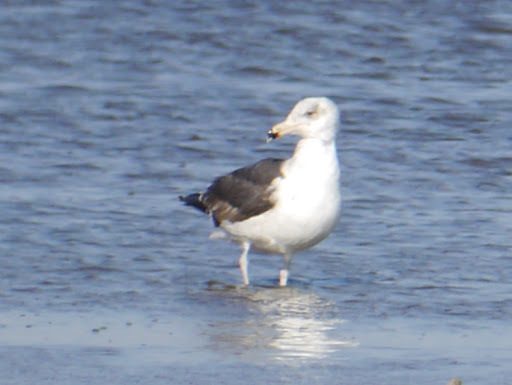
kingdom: Animalia
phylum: Chordata
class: Aves
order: Charadriiformes
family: Laridae
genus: Larus
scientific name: Larus marinus
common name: Great black-backed gull
